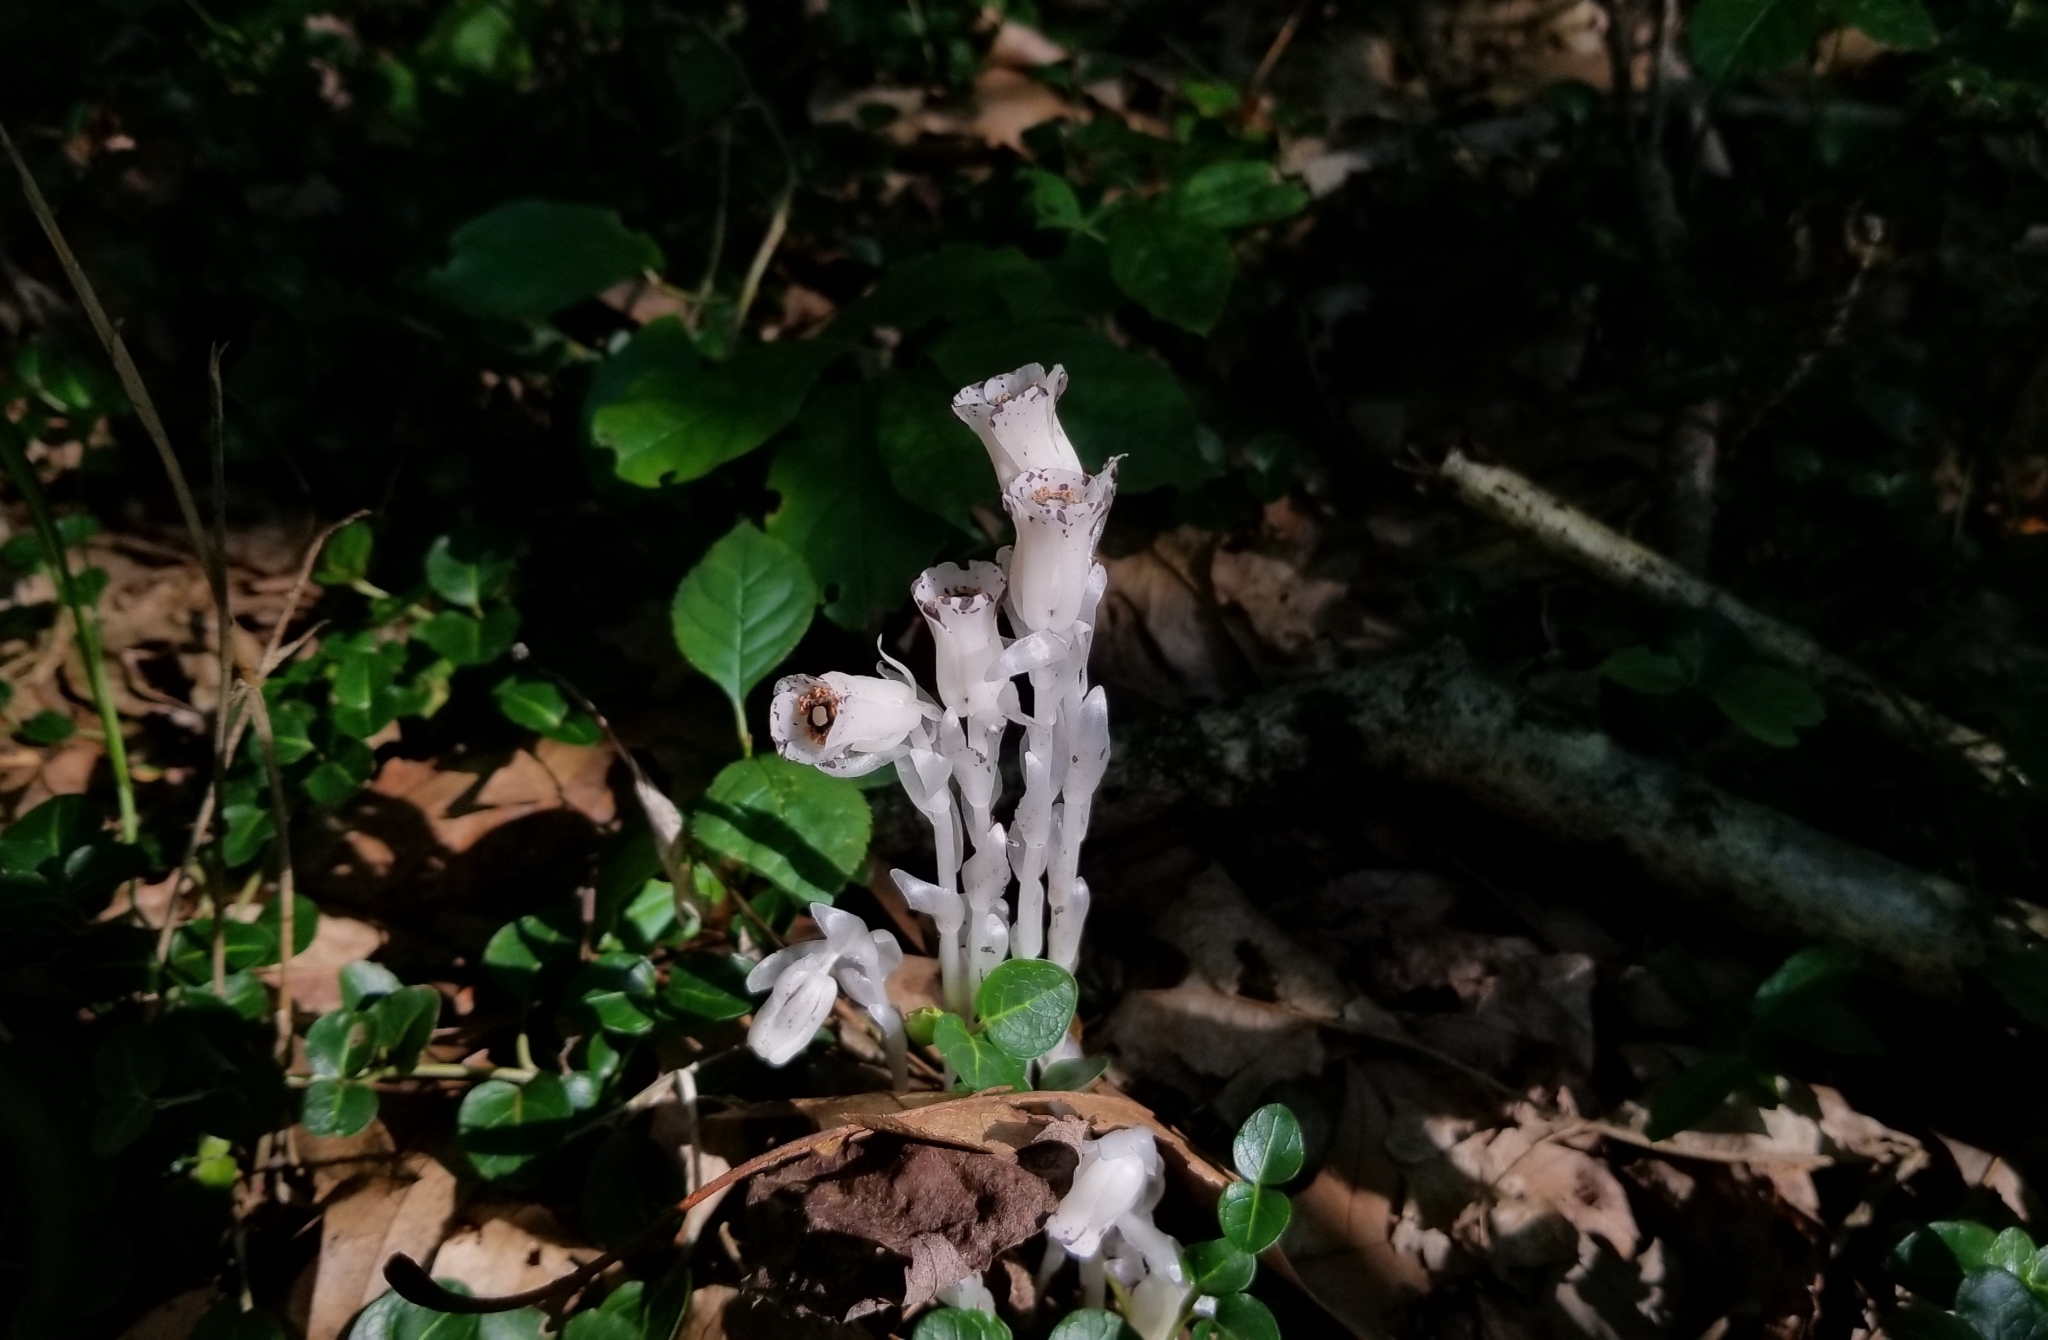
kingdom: Plantae
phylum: Tracheophyta
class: Magnoliopsida
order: Ericales
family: Ericaceae
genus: Monotropa
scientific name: Monotropa uniflora
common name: Convulsion root
